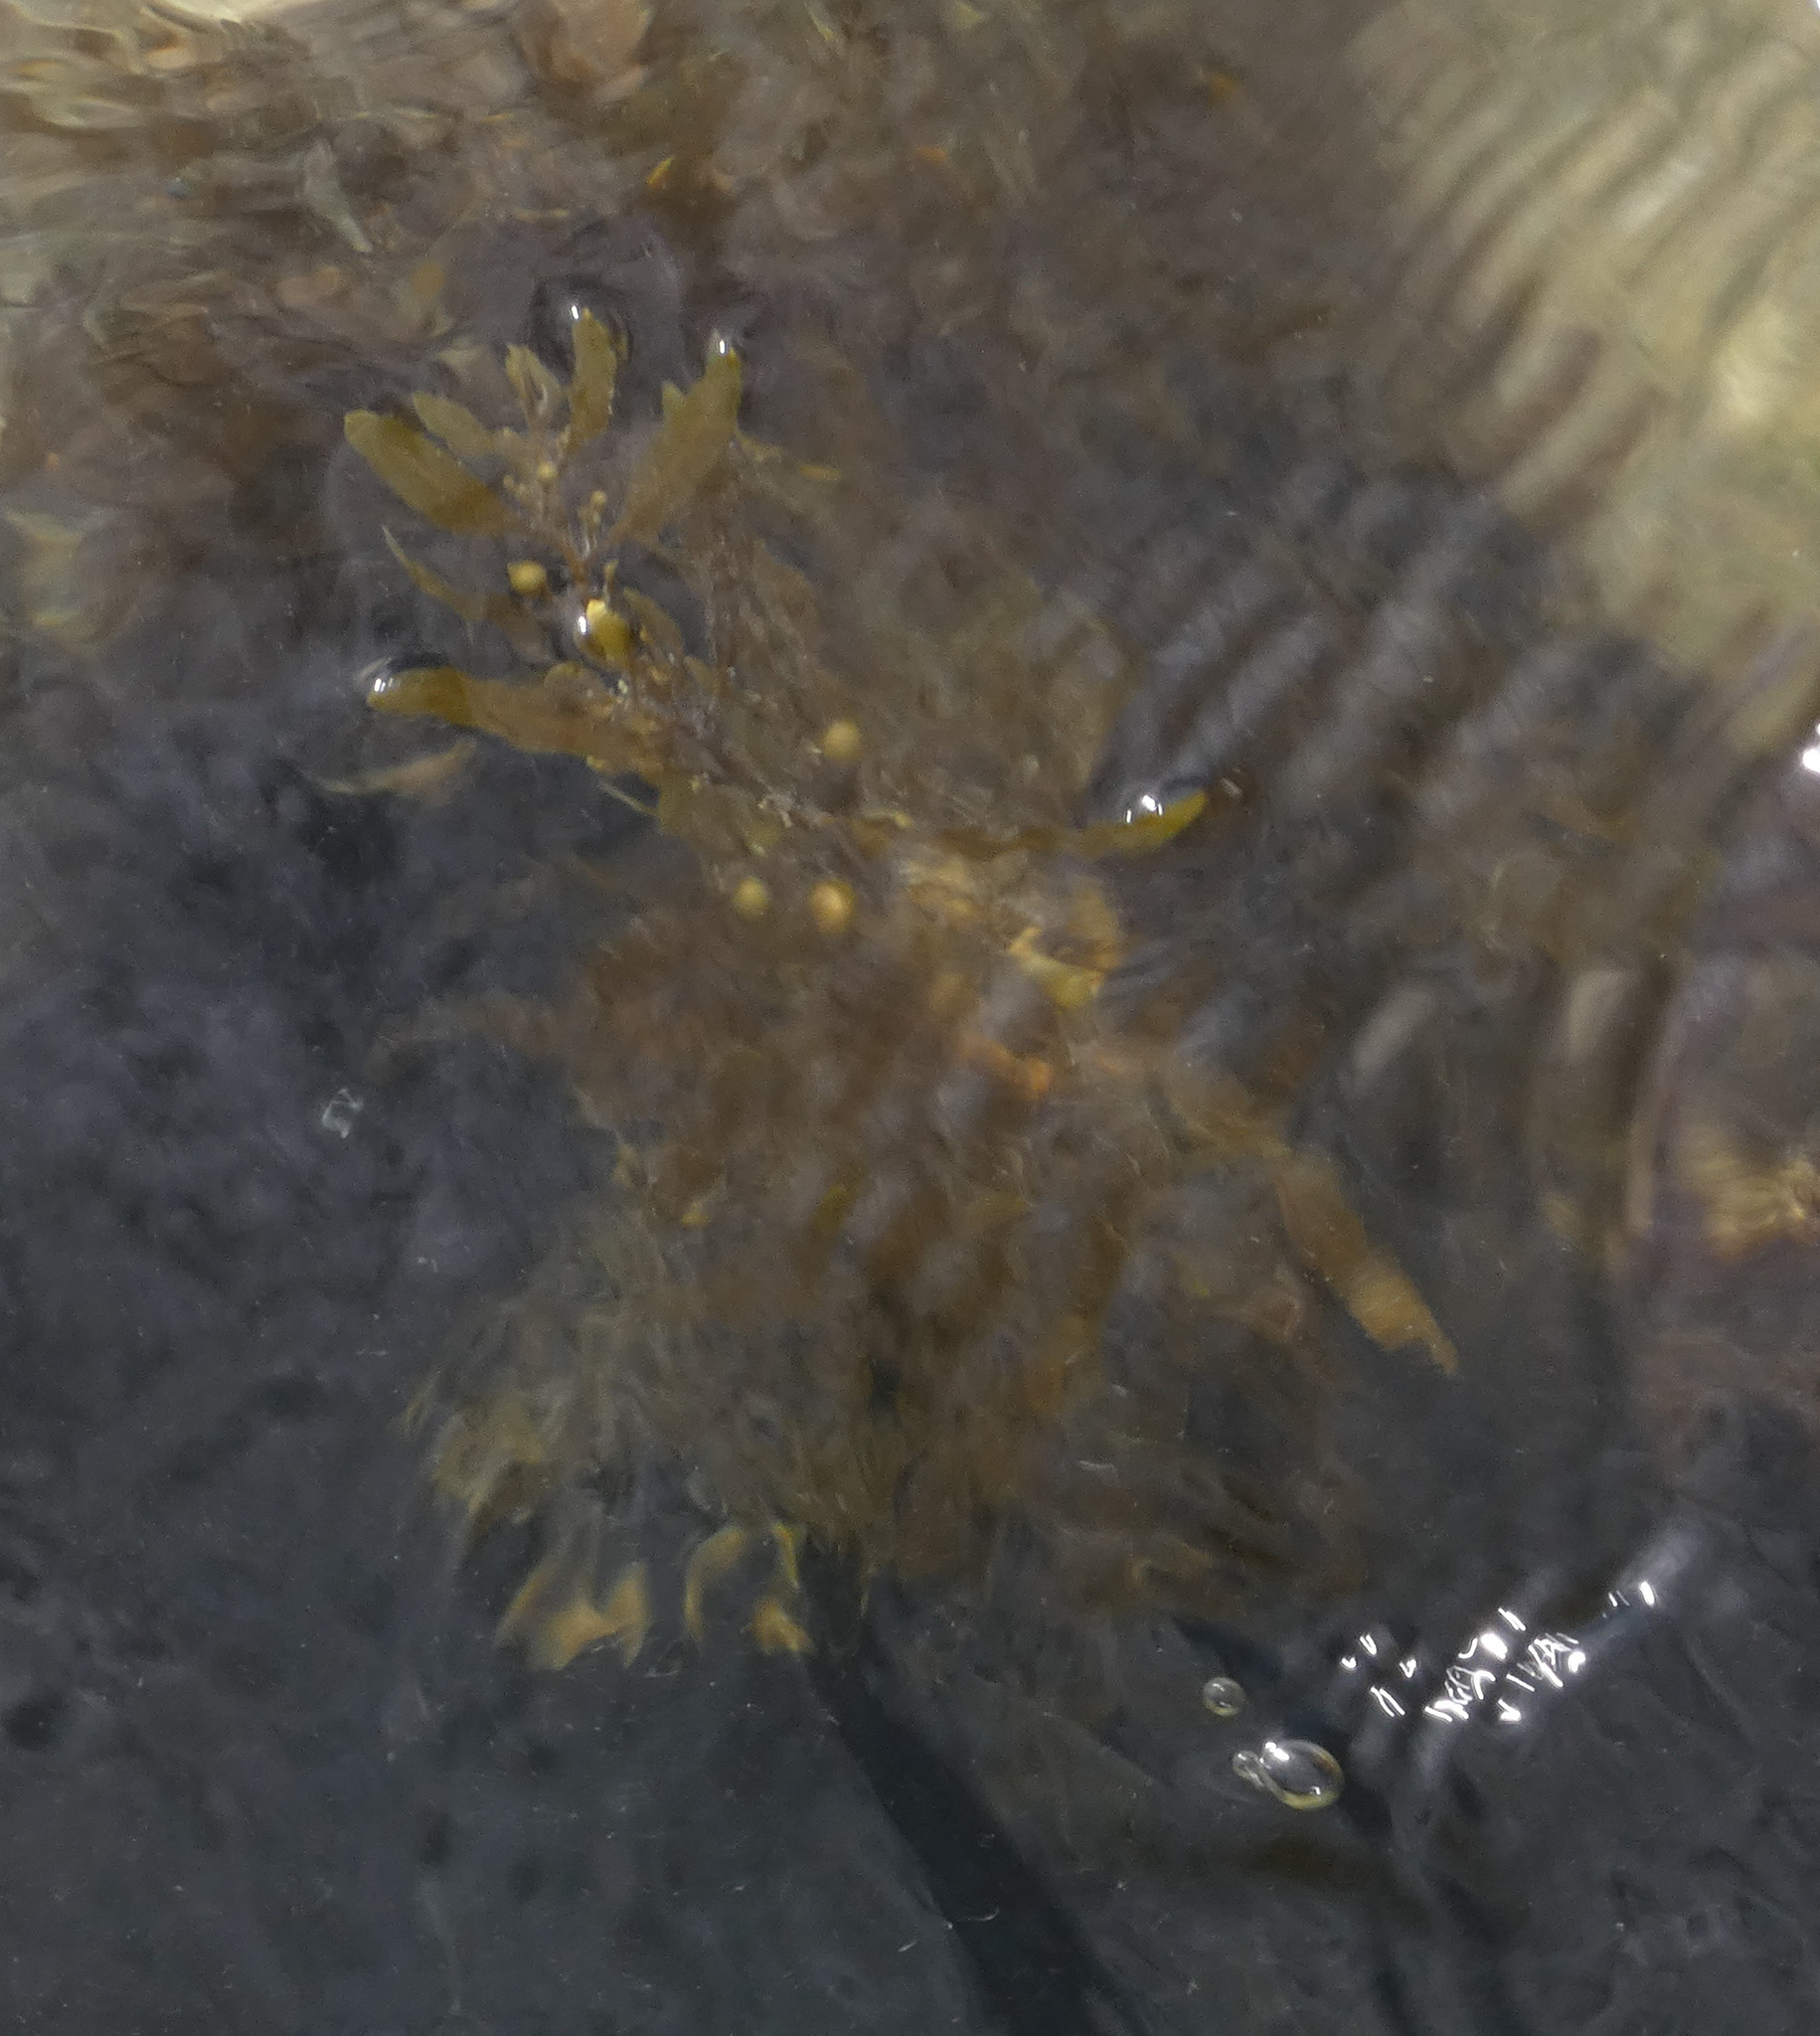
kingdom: Chromista
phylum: Ochrophyta
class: Phaeophyceae
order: Fucales
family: Sargassaceae
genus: Sargassum
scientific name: Sargassum fluitans
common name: Sargassum seaweed
